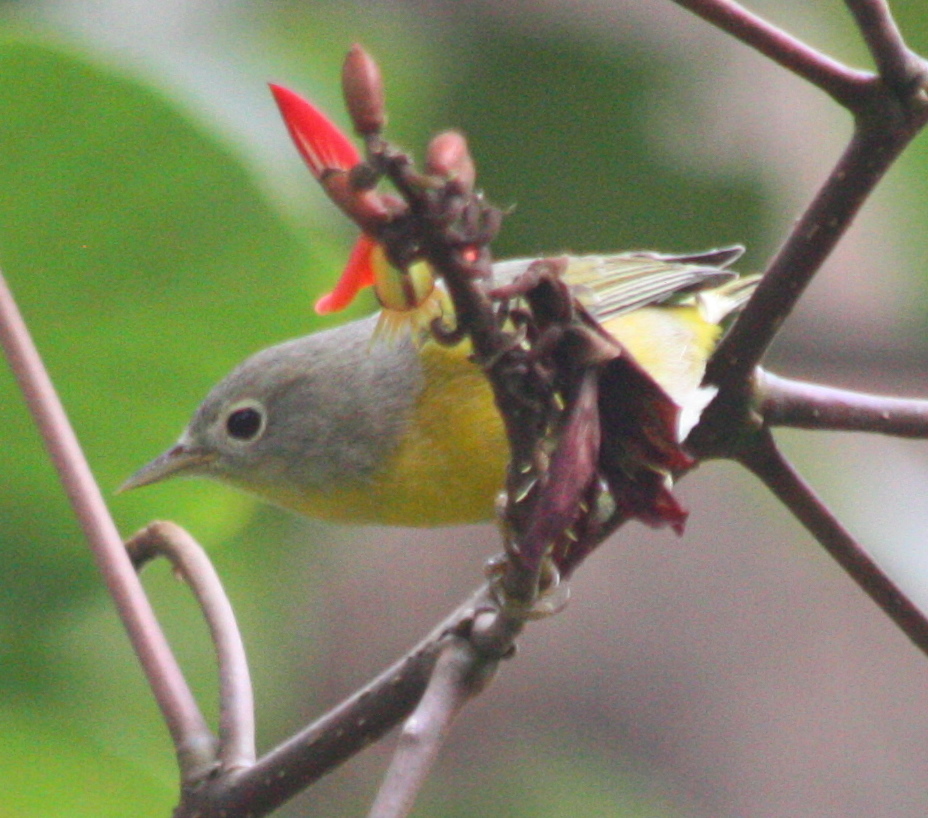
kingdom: Animalia
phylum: Chordata
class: Aves
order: Passeriformes
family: Parulidae
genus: Leiothlypis
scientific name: Leiothlypis ruficapilla
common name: Nashville warbler
